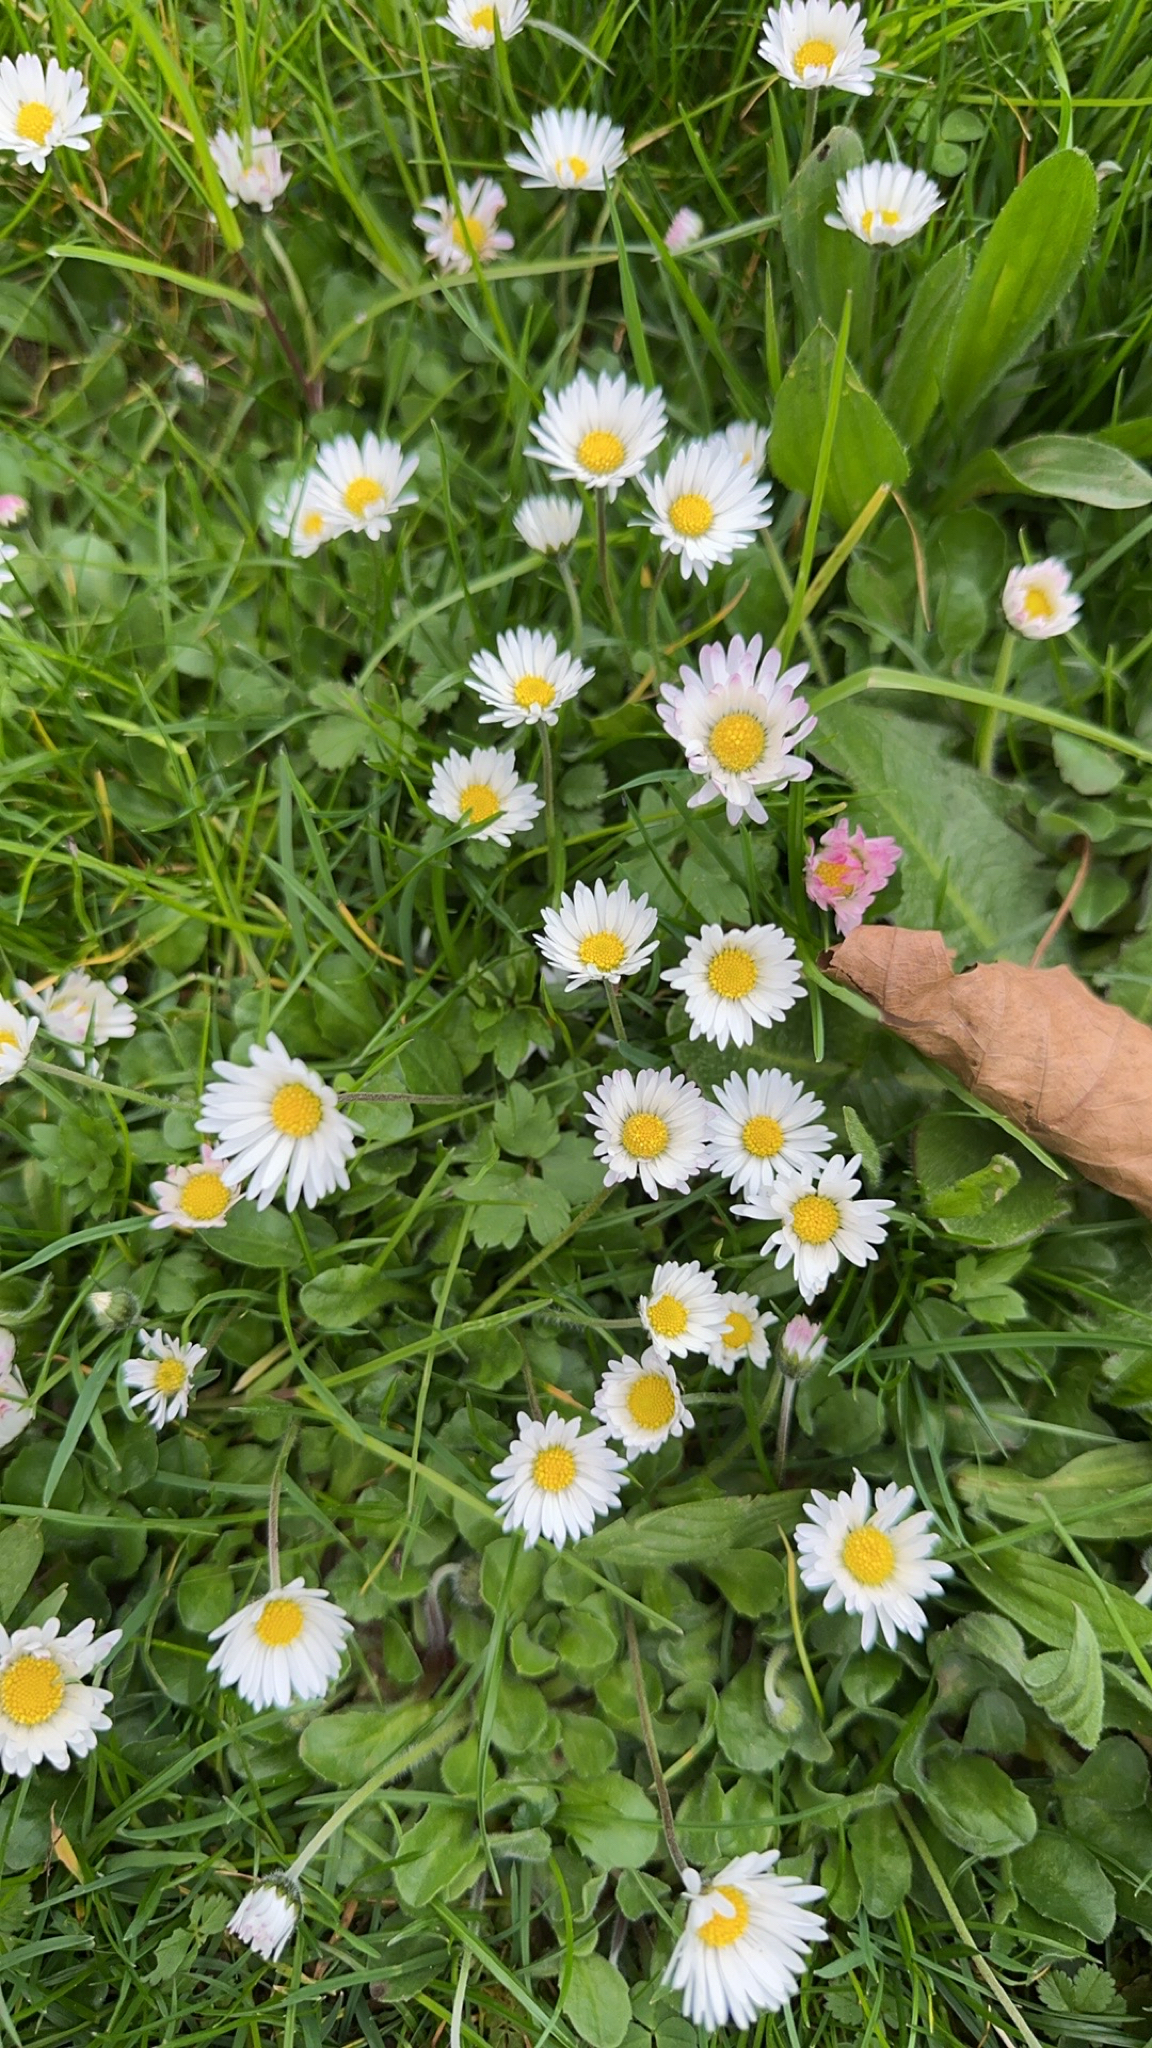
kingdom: Plantae
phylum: Tracheophyta
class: Magnoliopsida
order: Asterales
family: Asteraceae
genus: Bellis
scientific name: Bellis perennis
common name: Lawndaisy
